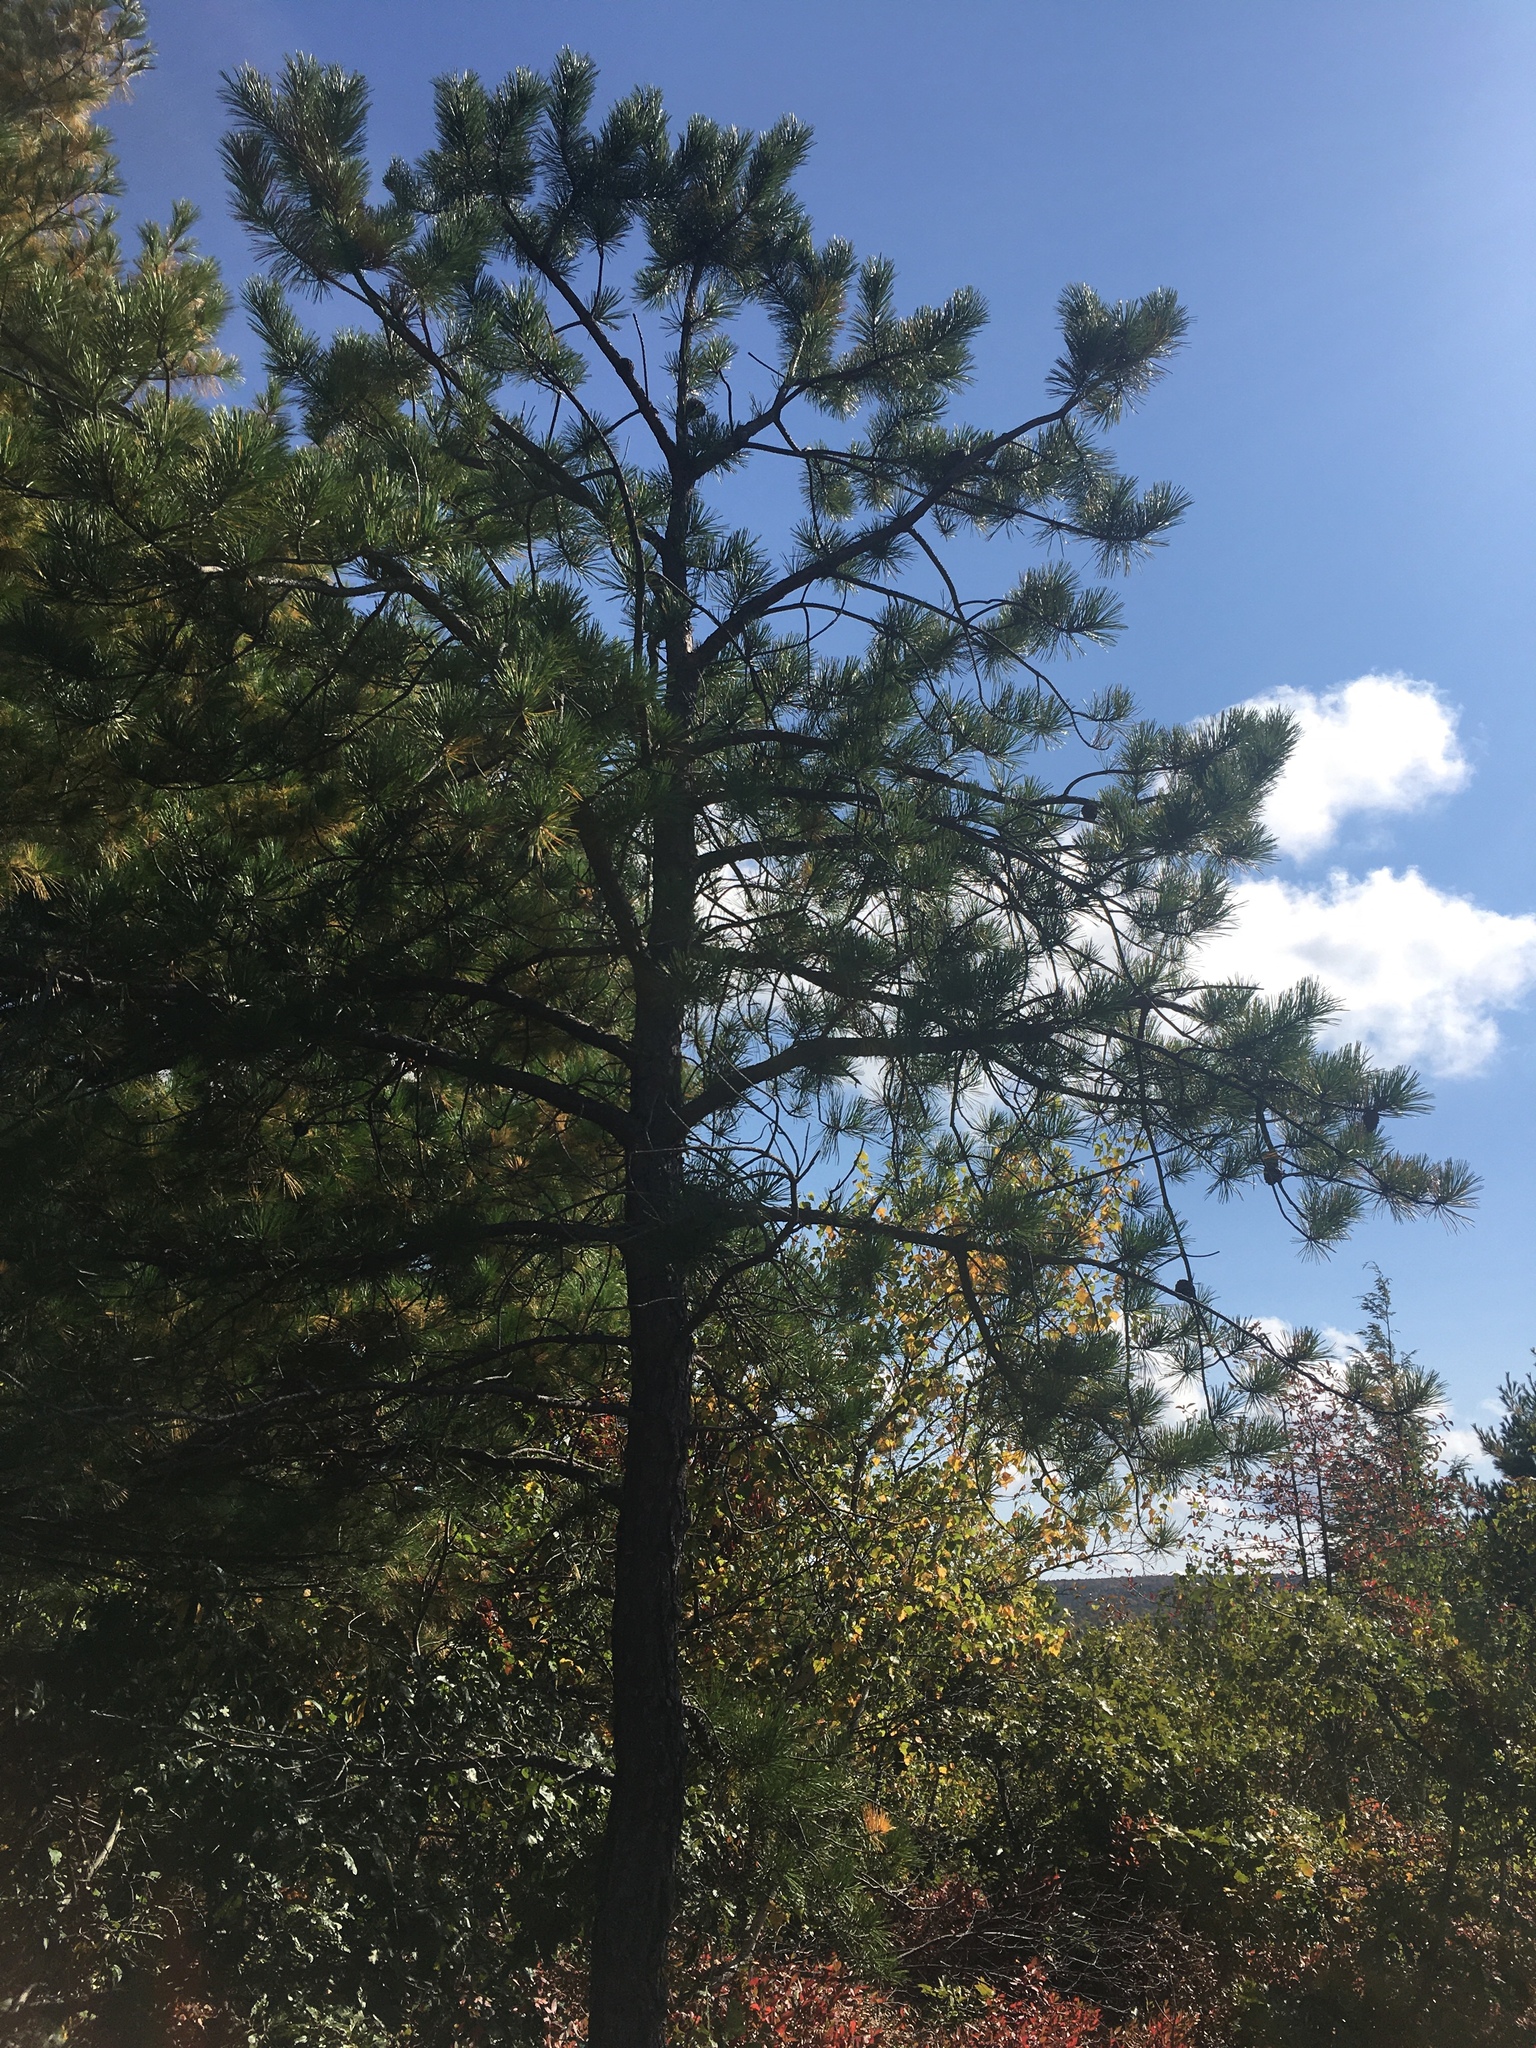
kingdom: Plantae
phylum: Tracheophyta
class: Pinopsida
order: Pinales
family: Pinaceae
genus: Pinus
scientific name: Pinus strobus
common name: Weymouth pine
